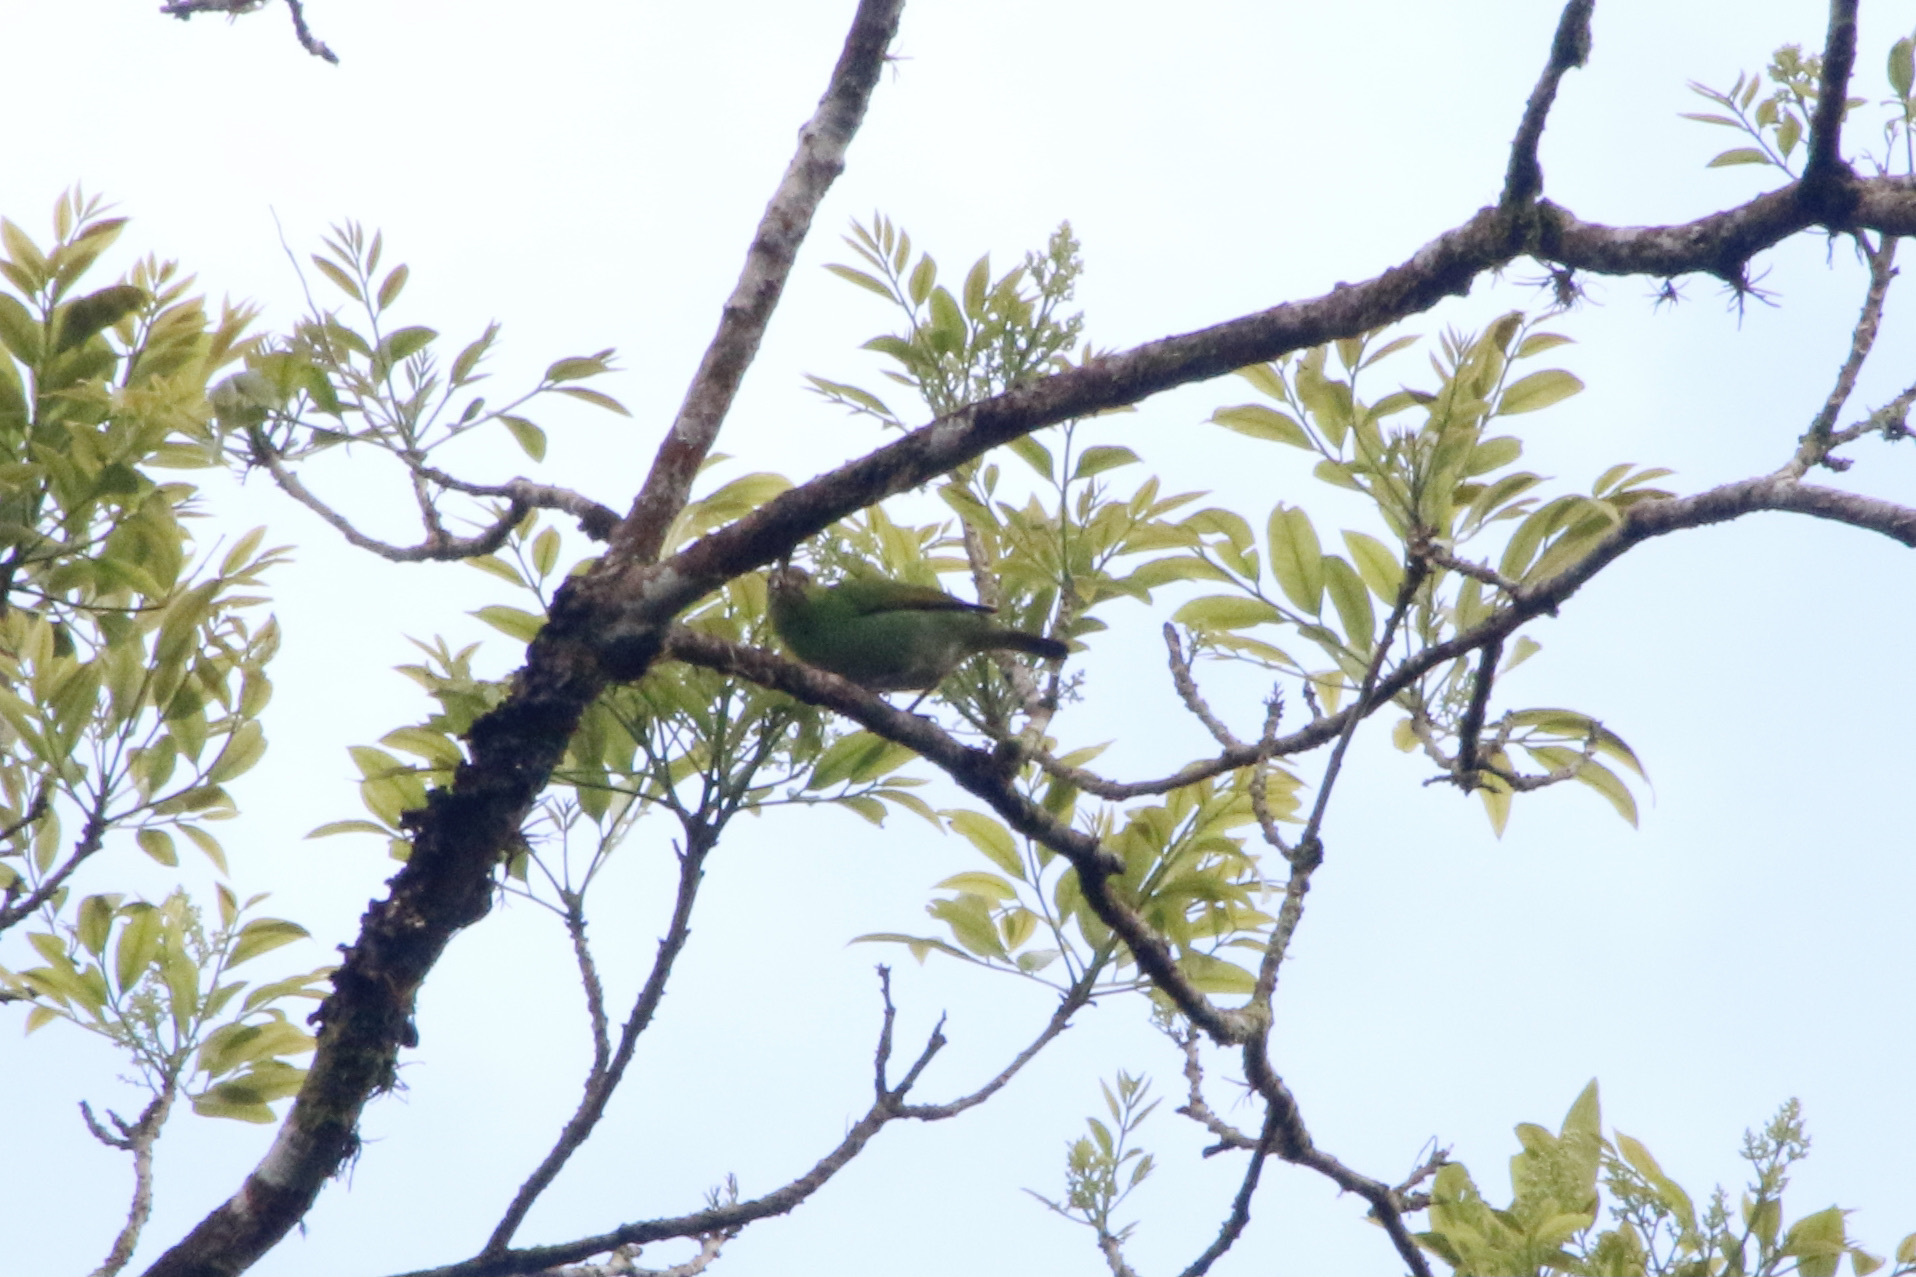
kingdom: Animalia
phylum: Chordata
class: Aves
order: Passeriformes
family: Thraupidae
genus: Tangara
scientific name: Tangara lavinia
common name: Rufous-winged tanager
